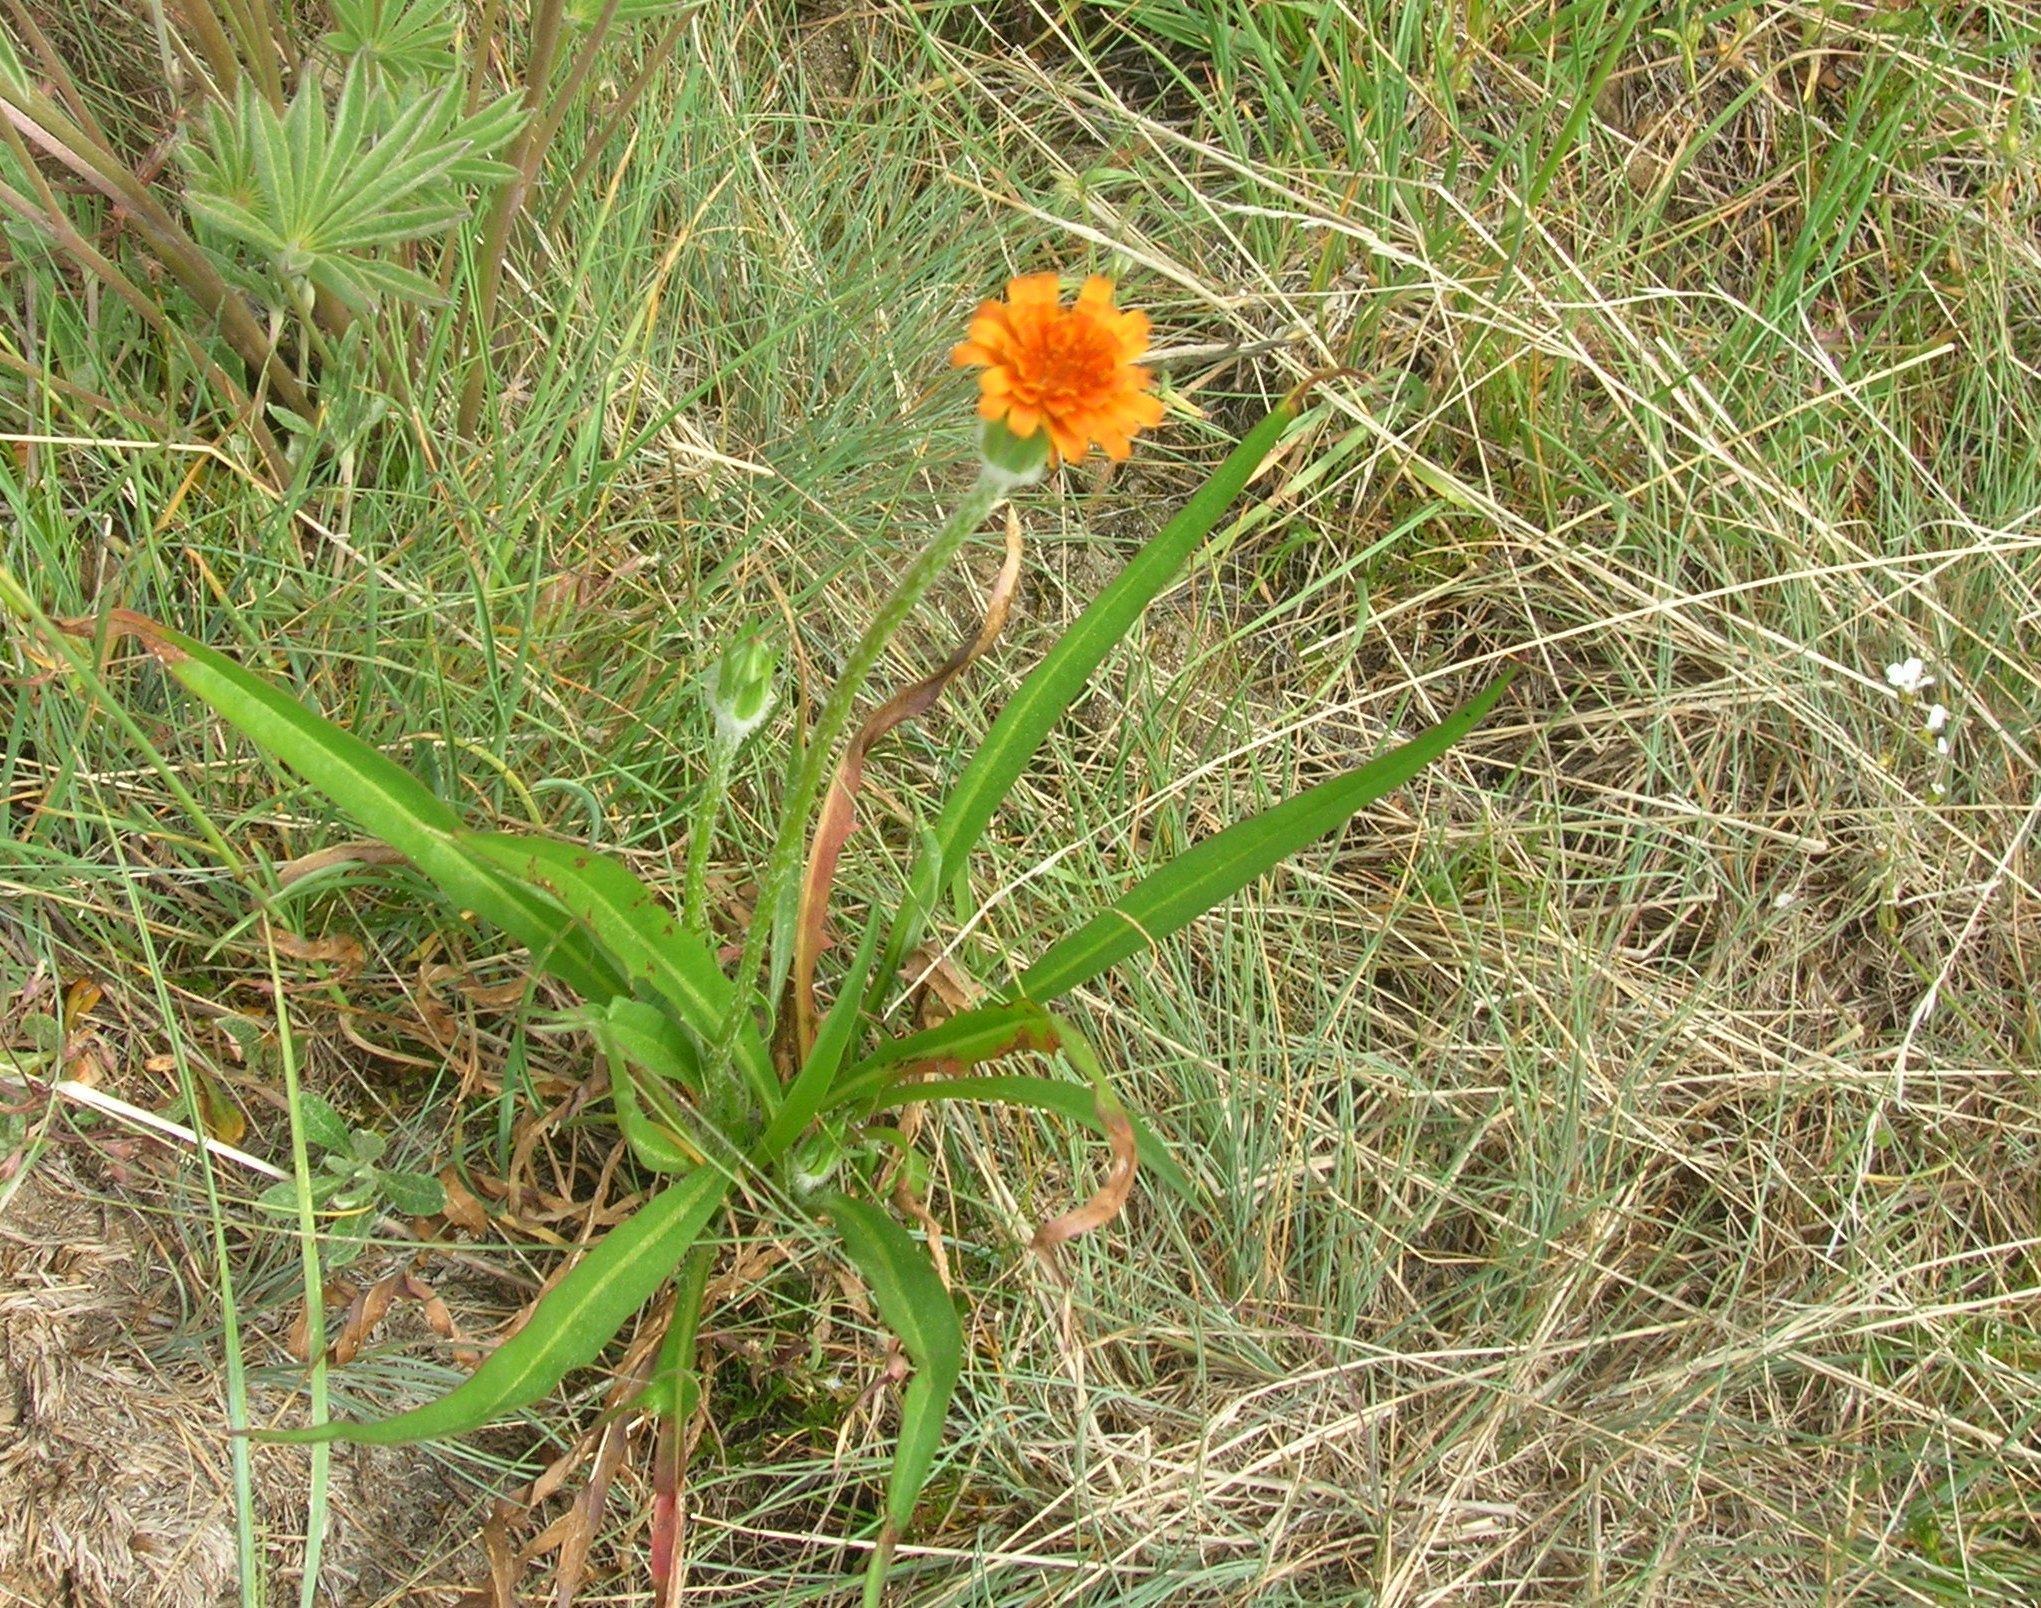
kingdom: Plantae
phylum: Tracheophyta
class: Magnoliopsida
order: Asterales
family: Asteraceae
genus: Agoseris
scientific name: Agoseris aurantiaca
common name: Mountain agoseris
